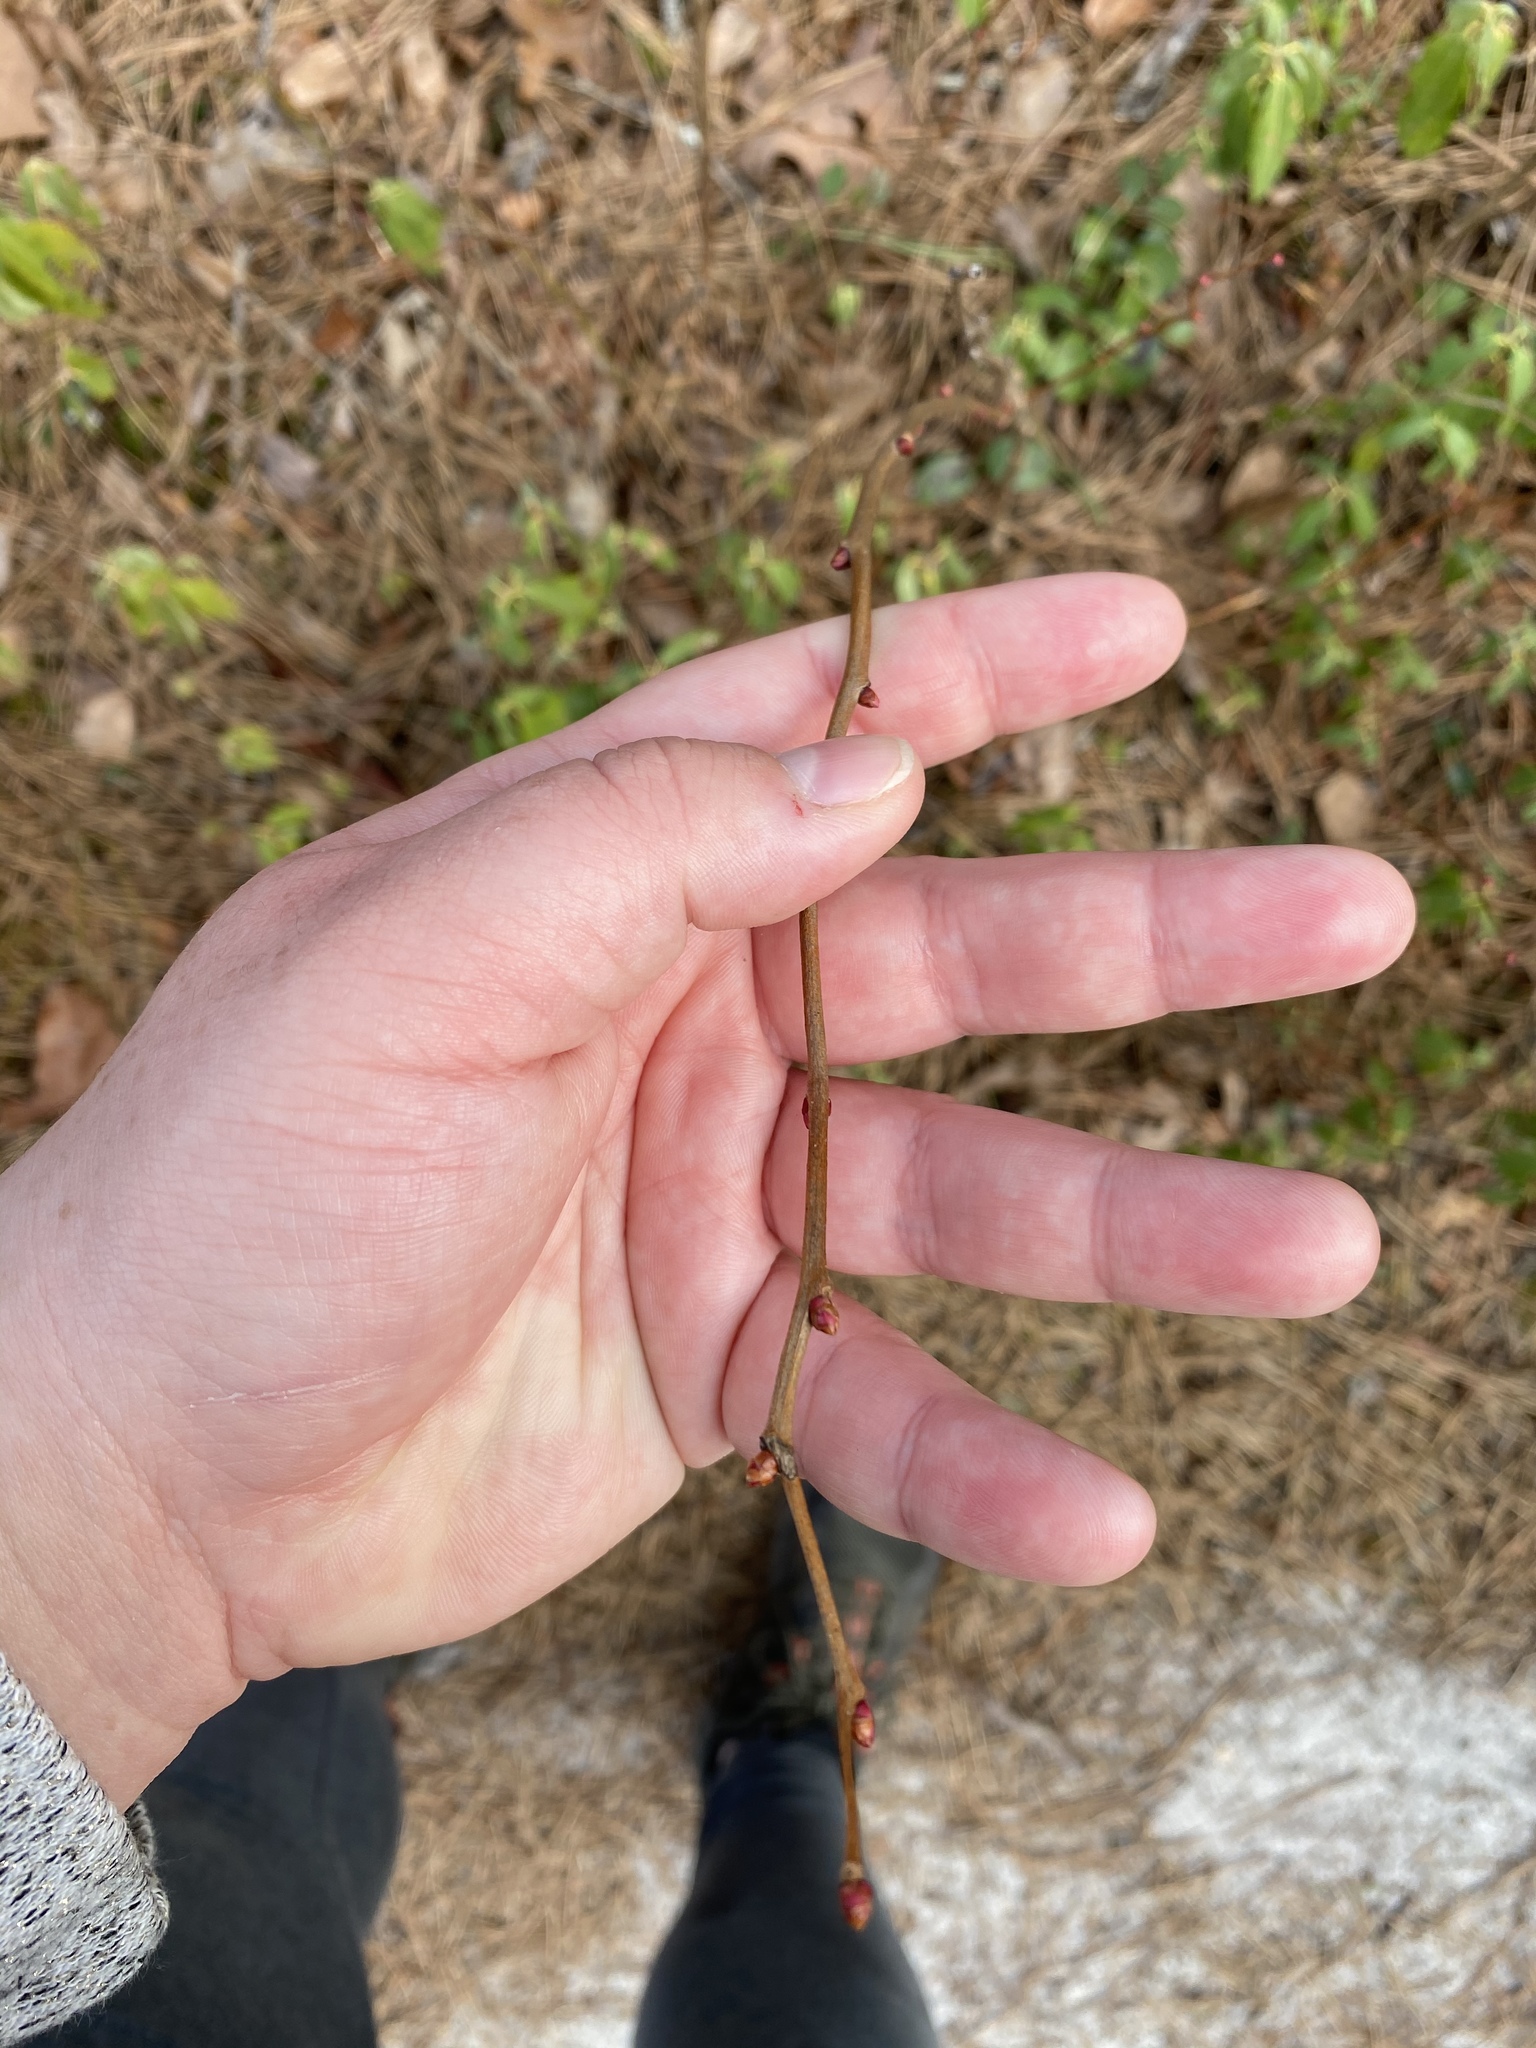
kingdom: Plantae
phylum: Tracheophyta
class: Magnoliopsida
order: Ericales
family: Ericaceae
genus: Lyonia
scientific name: Lyonia mariana
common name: Staggerbush
